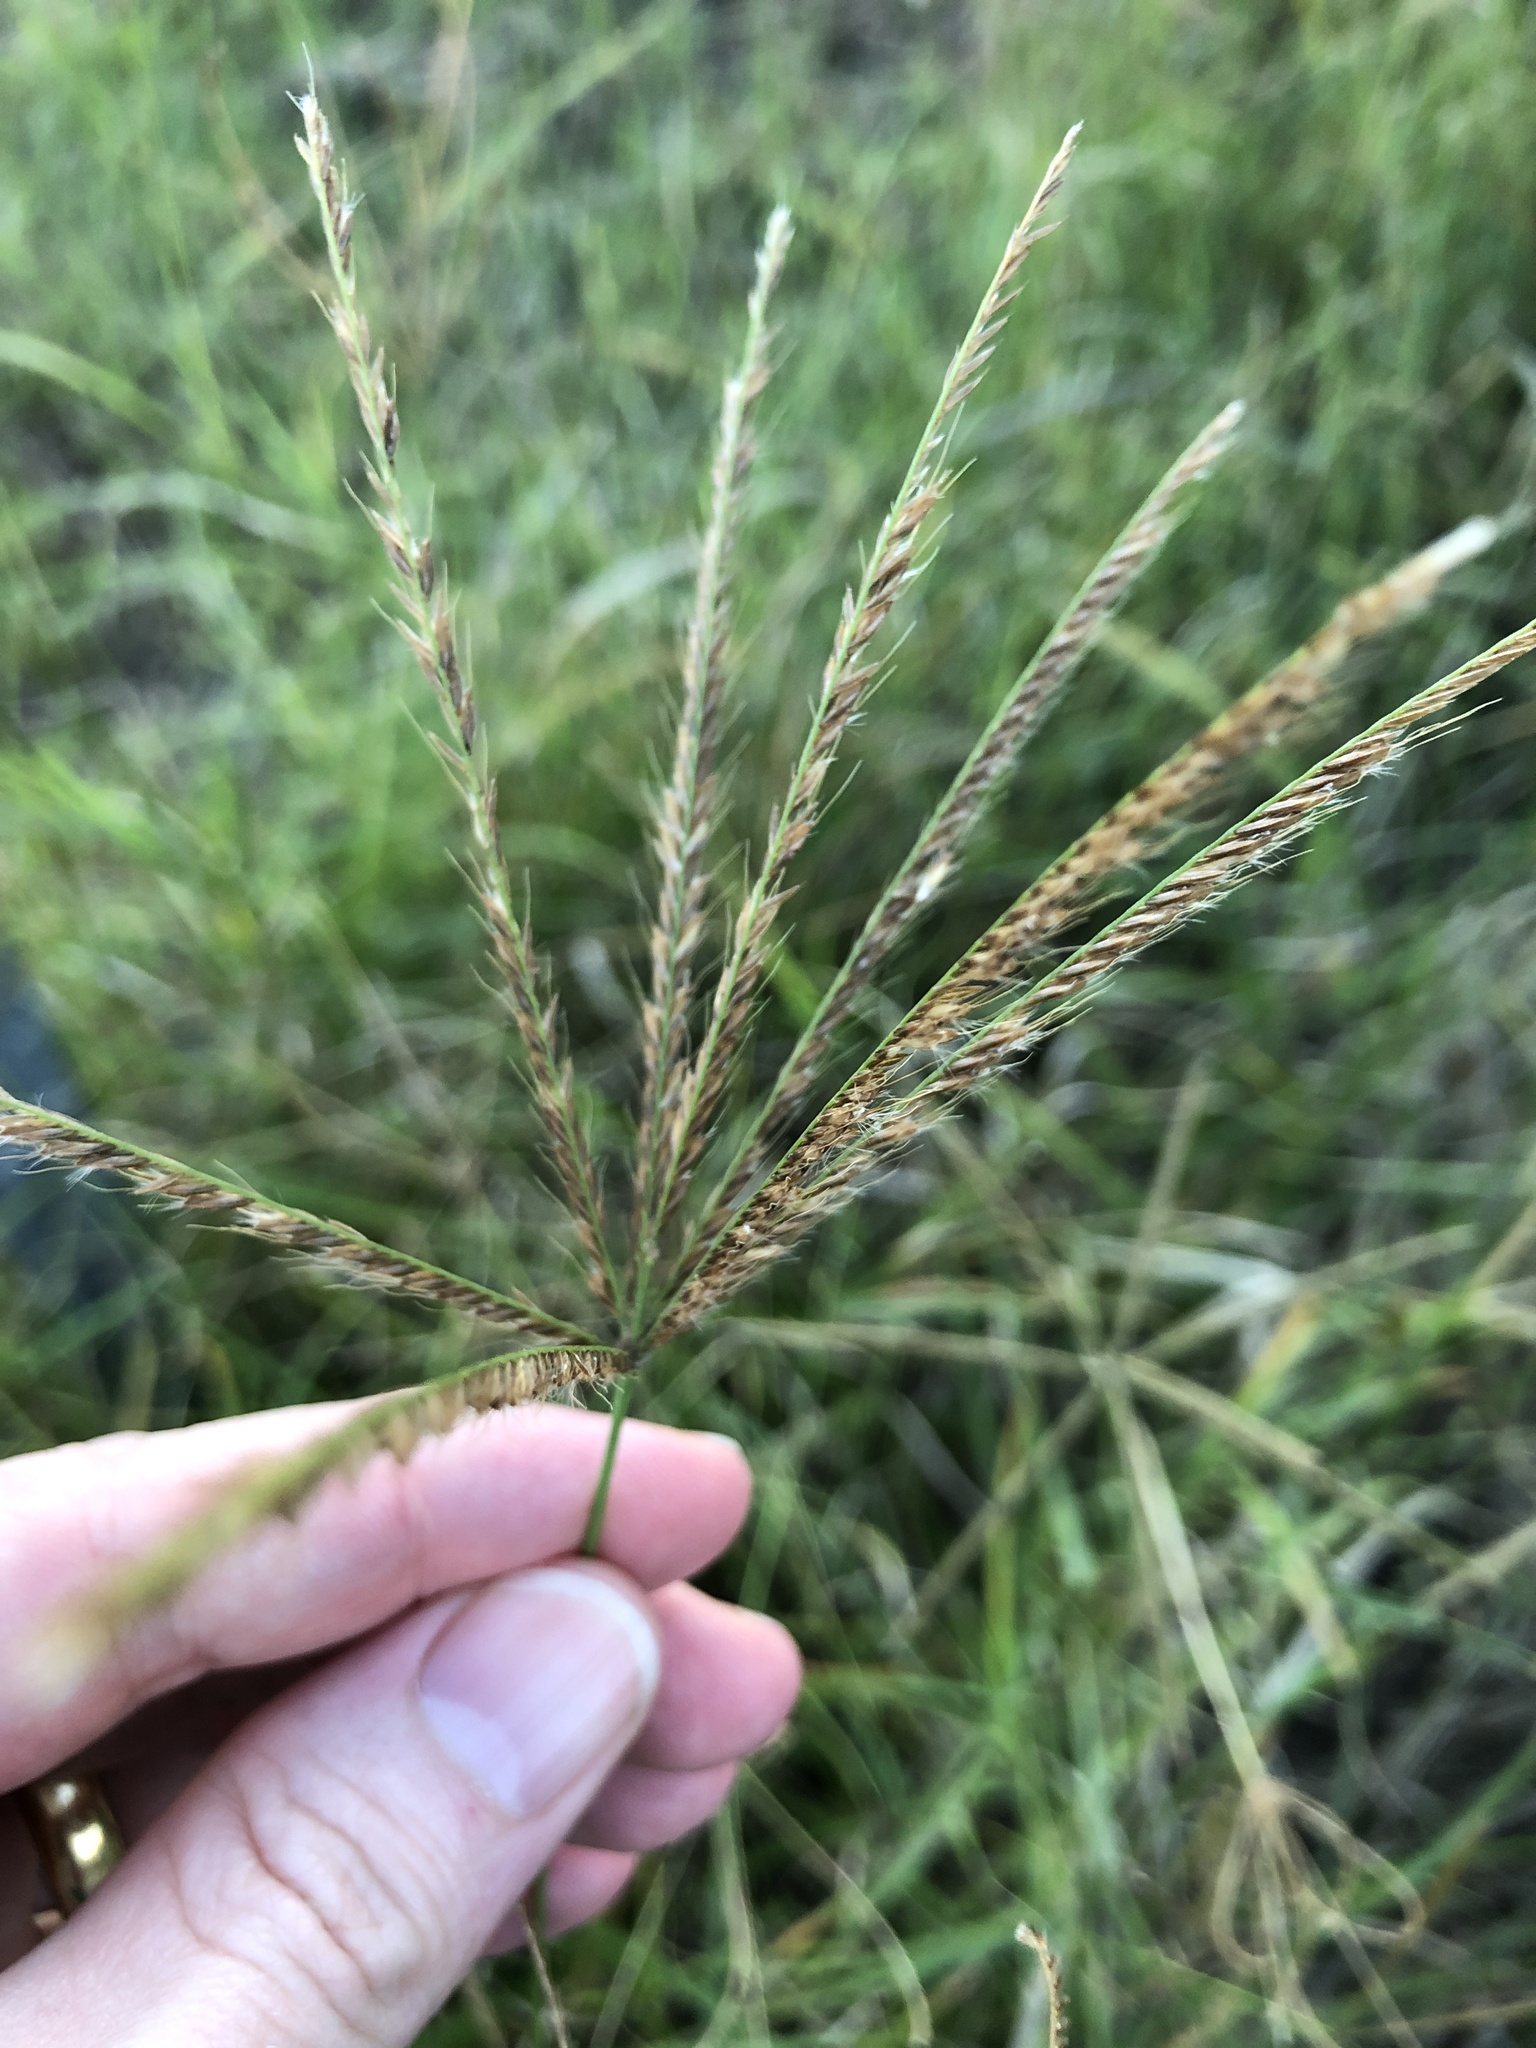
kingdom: Plantae
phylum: Tracheophyta
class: Liliopsida
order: Poales
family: Poaceae
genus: Chloris
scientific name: Chloris barbata
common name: Swollen fingergrass
